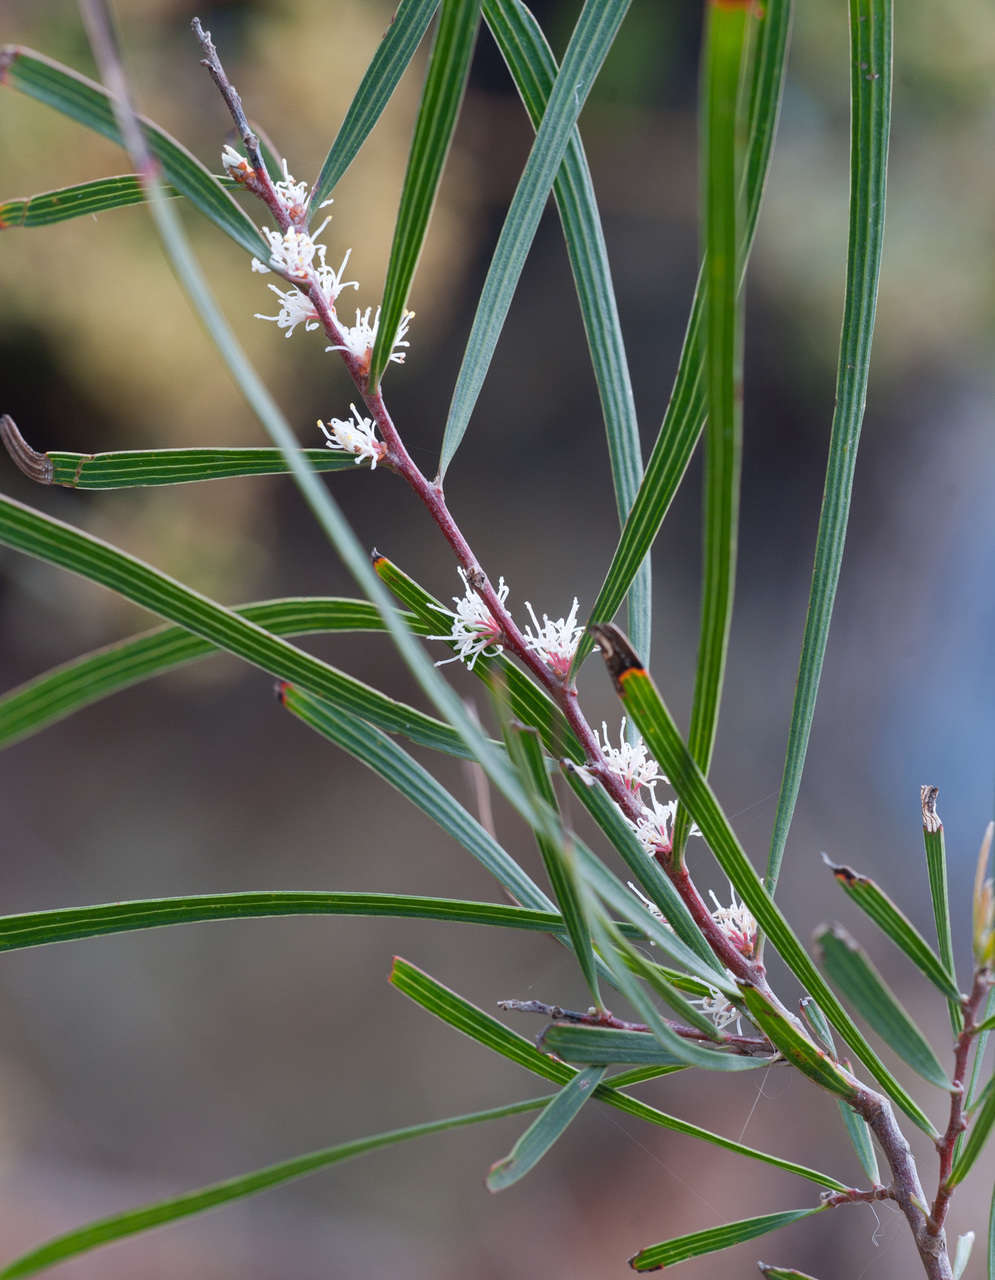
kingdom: Plantae
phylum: Tracheophyta
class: Magnoliopsida
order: Proteales
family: Proteaceae
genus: Hakea
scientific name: Hakea ulicina
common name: Furze hakea
